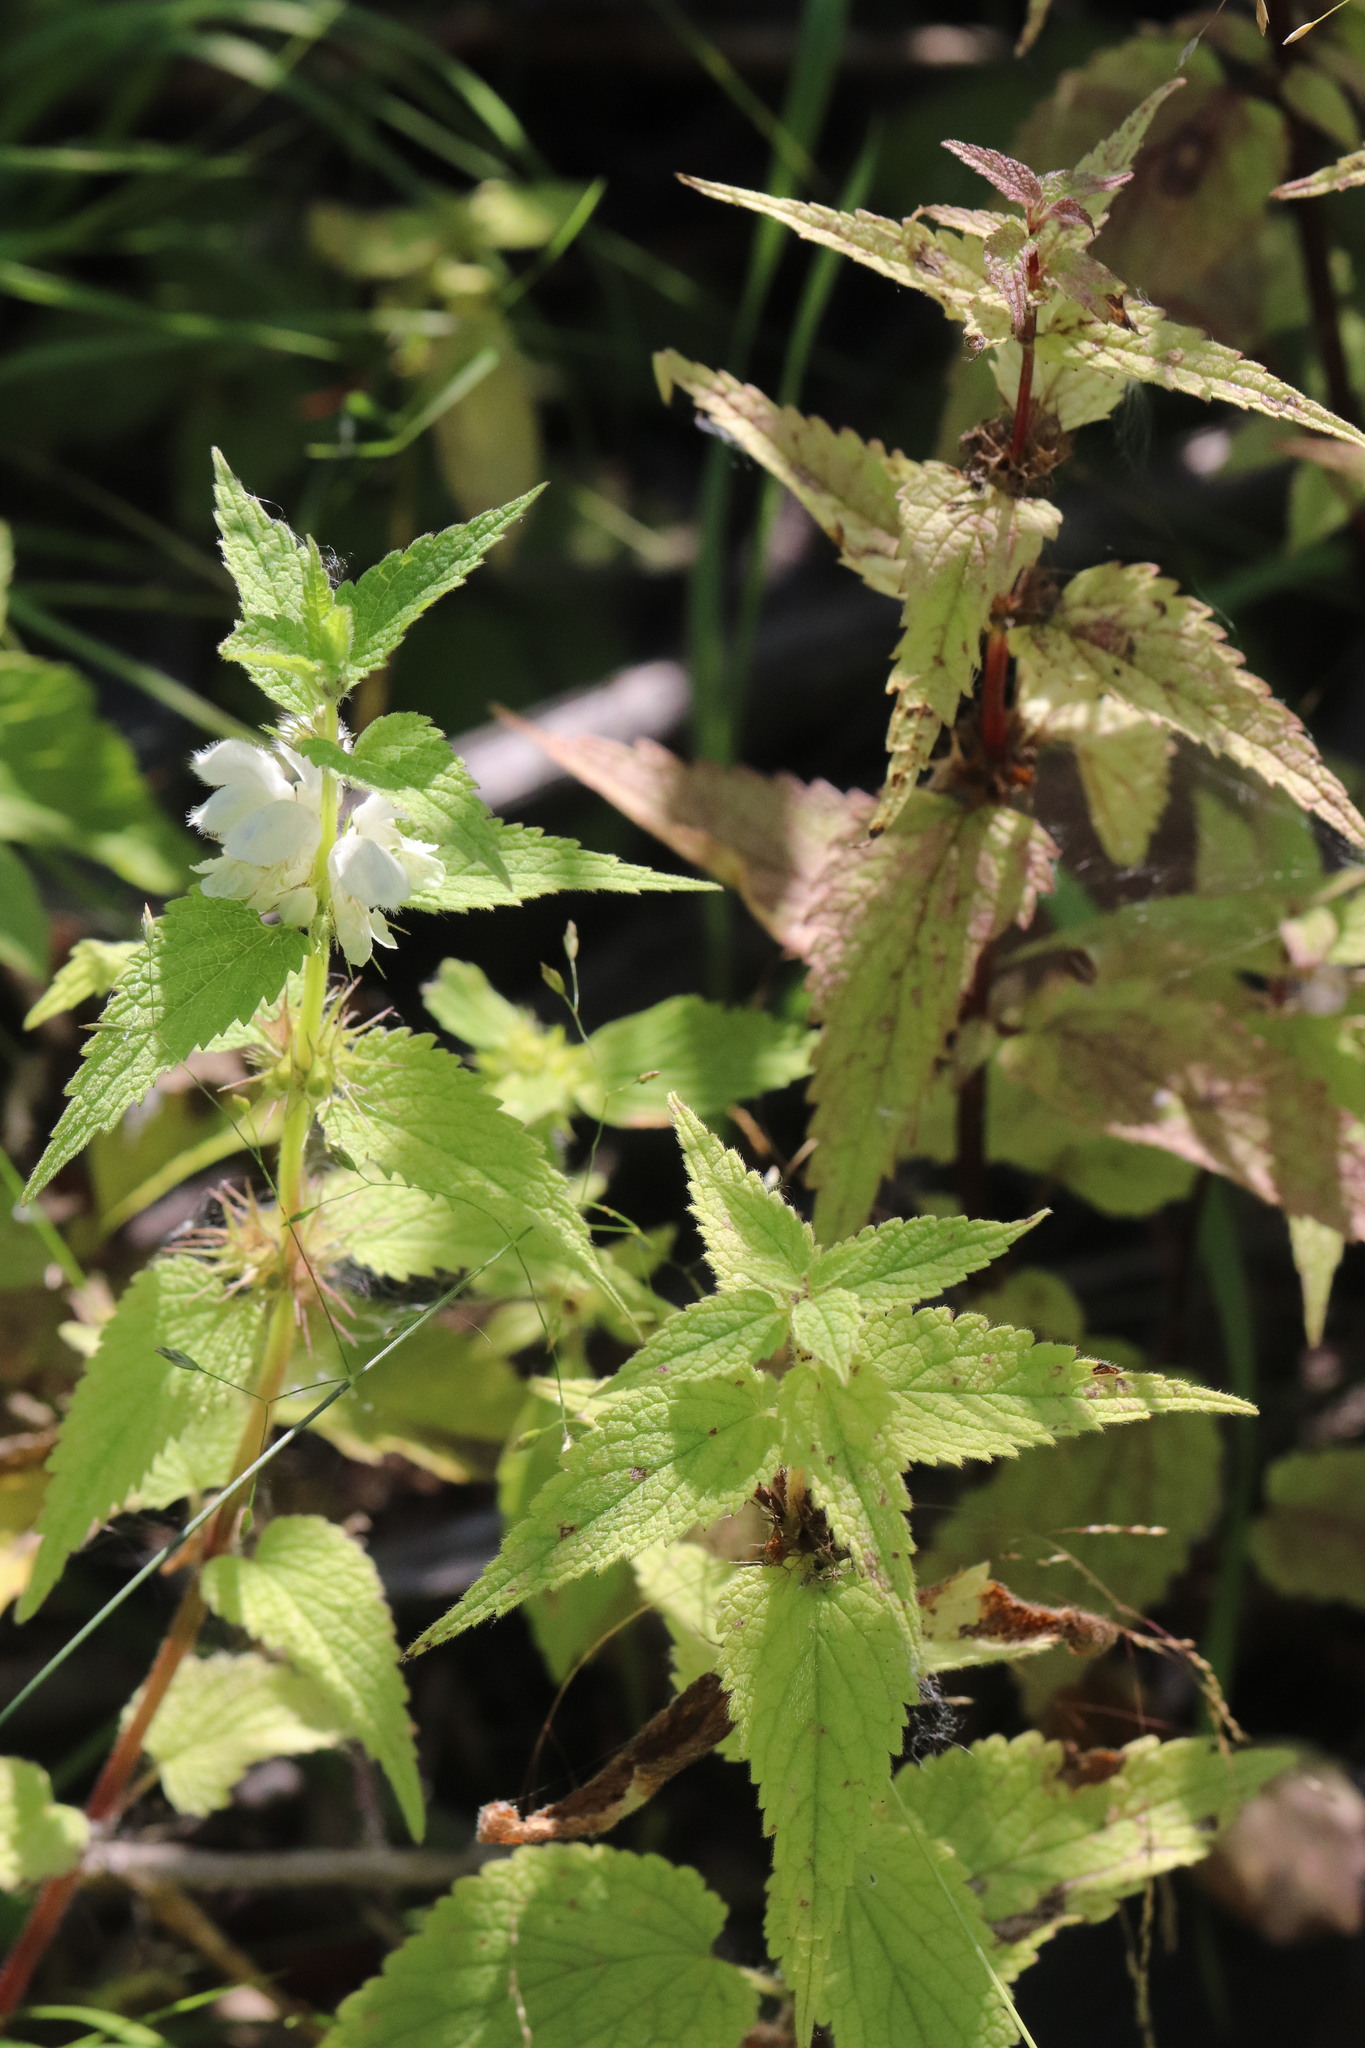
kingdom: Plantae
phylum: Tracheophyta
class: Magnoliopsida
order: Lamiales
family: Lamiaceae
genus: Lamium
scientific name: Lamium album
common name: White dead-nettle
